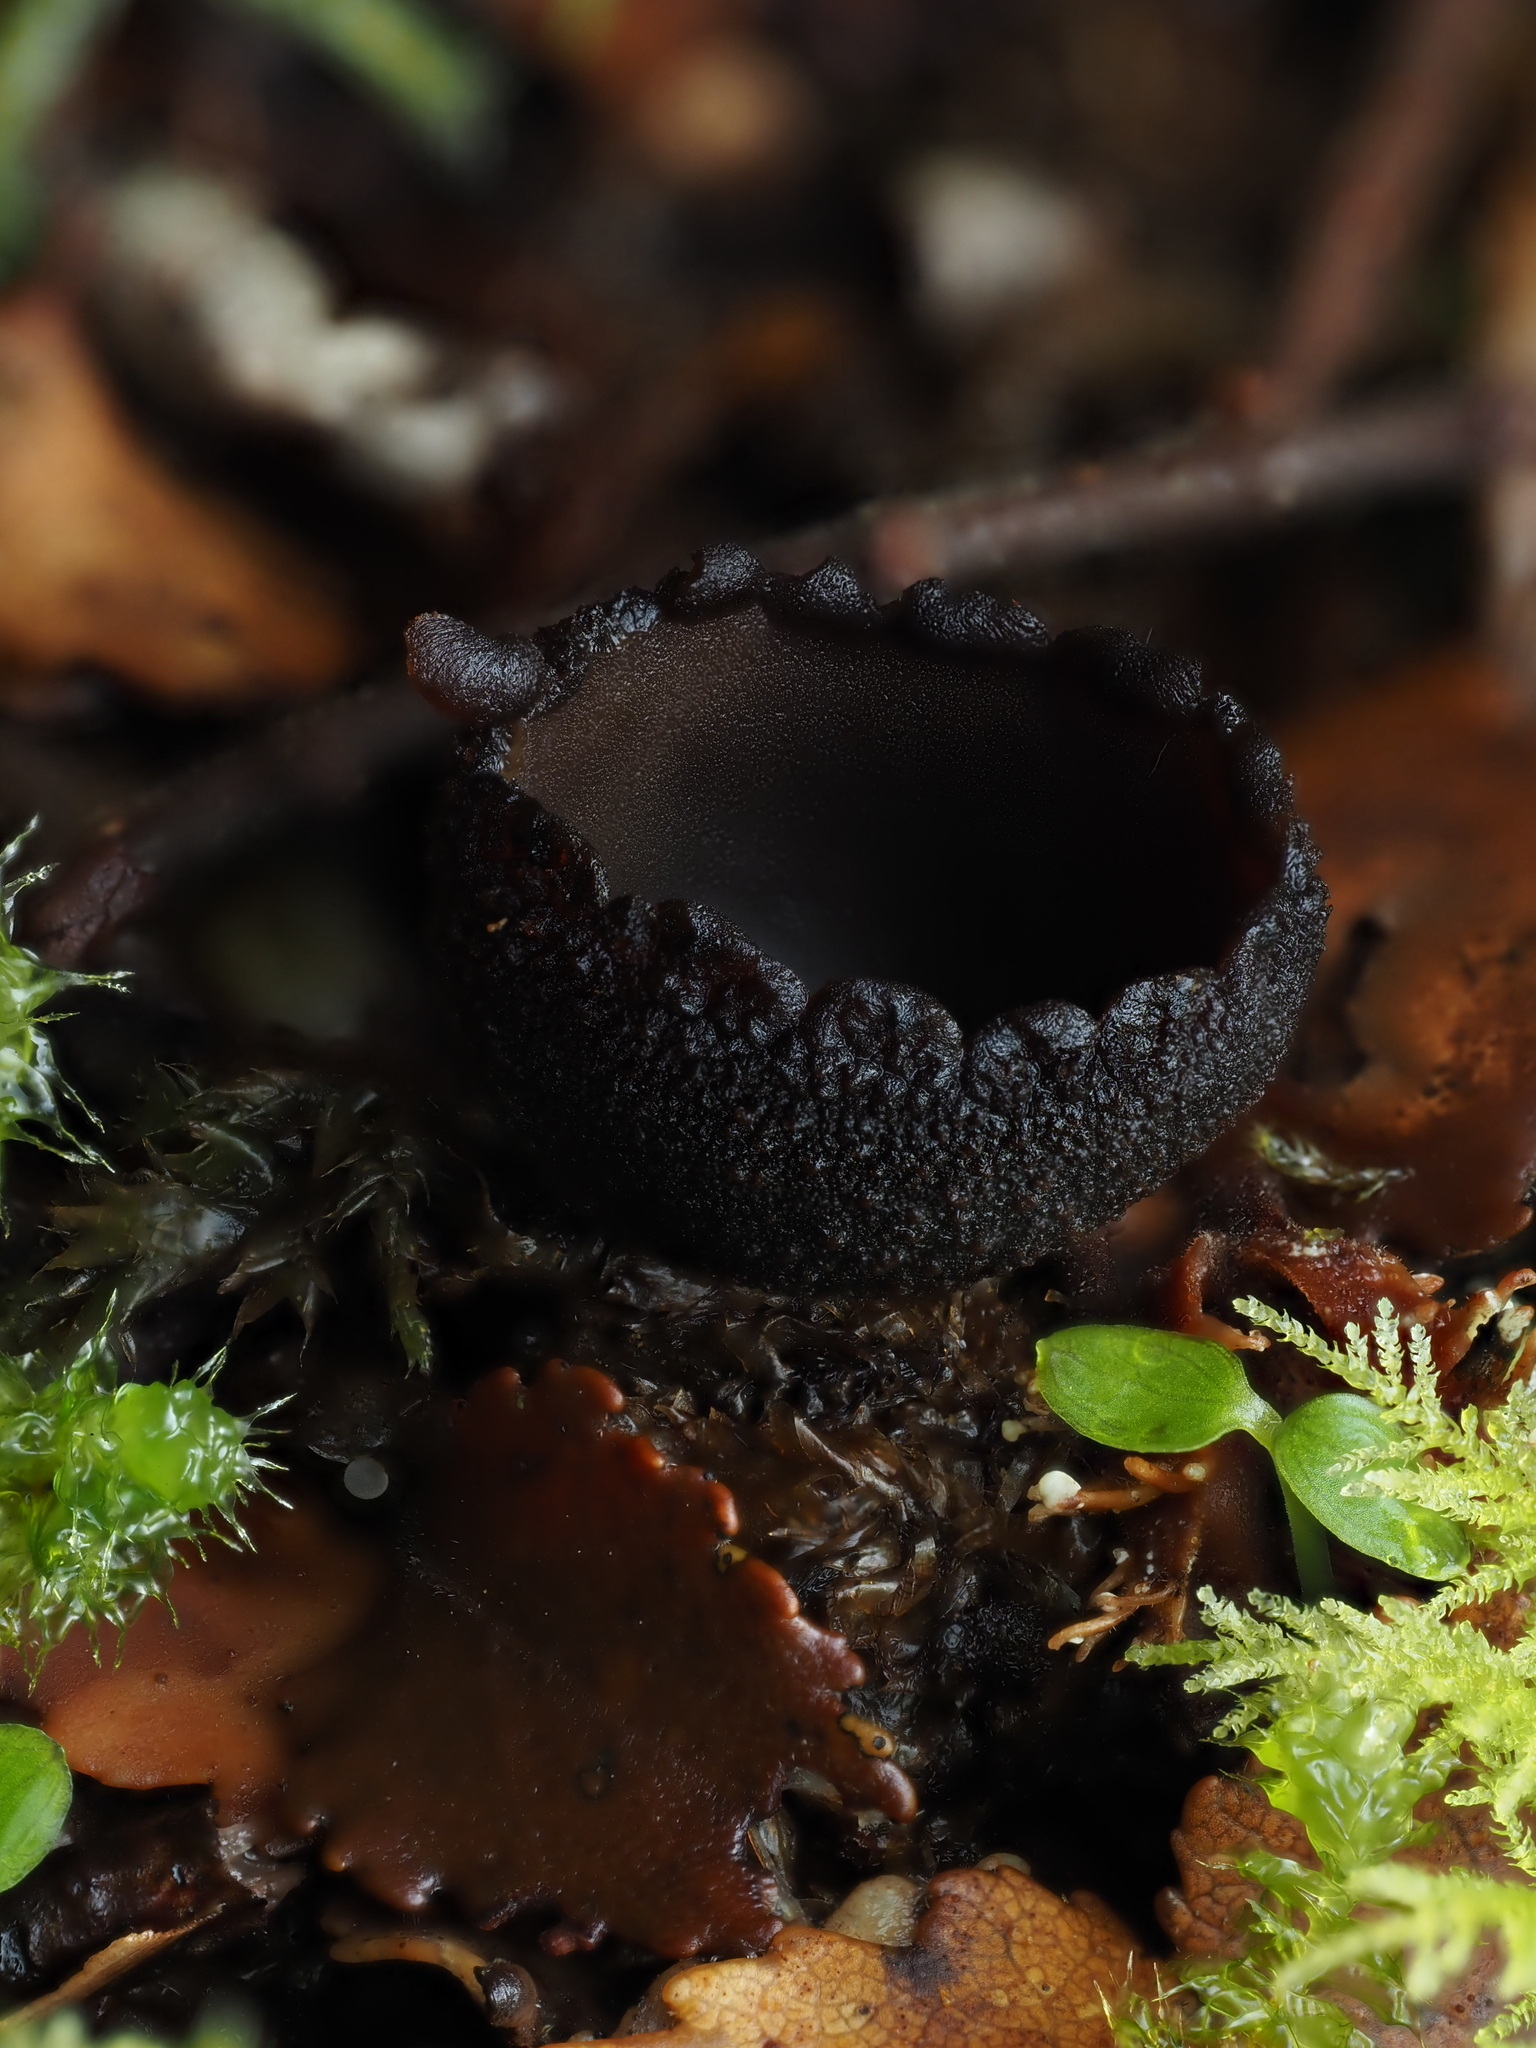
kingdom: Fungi
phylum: Ascomycota
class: Pezizomycetes
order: Pezizales
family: Sarcosomataceae
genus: Plectania
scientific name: Plectania campylospora
